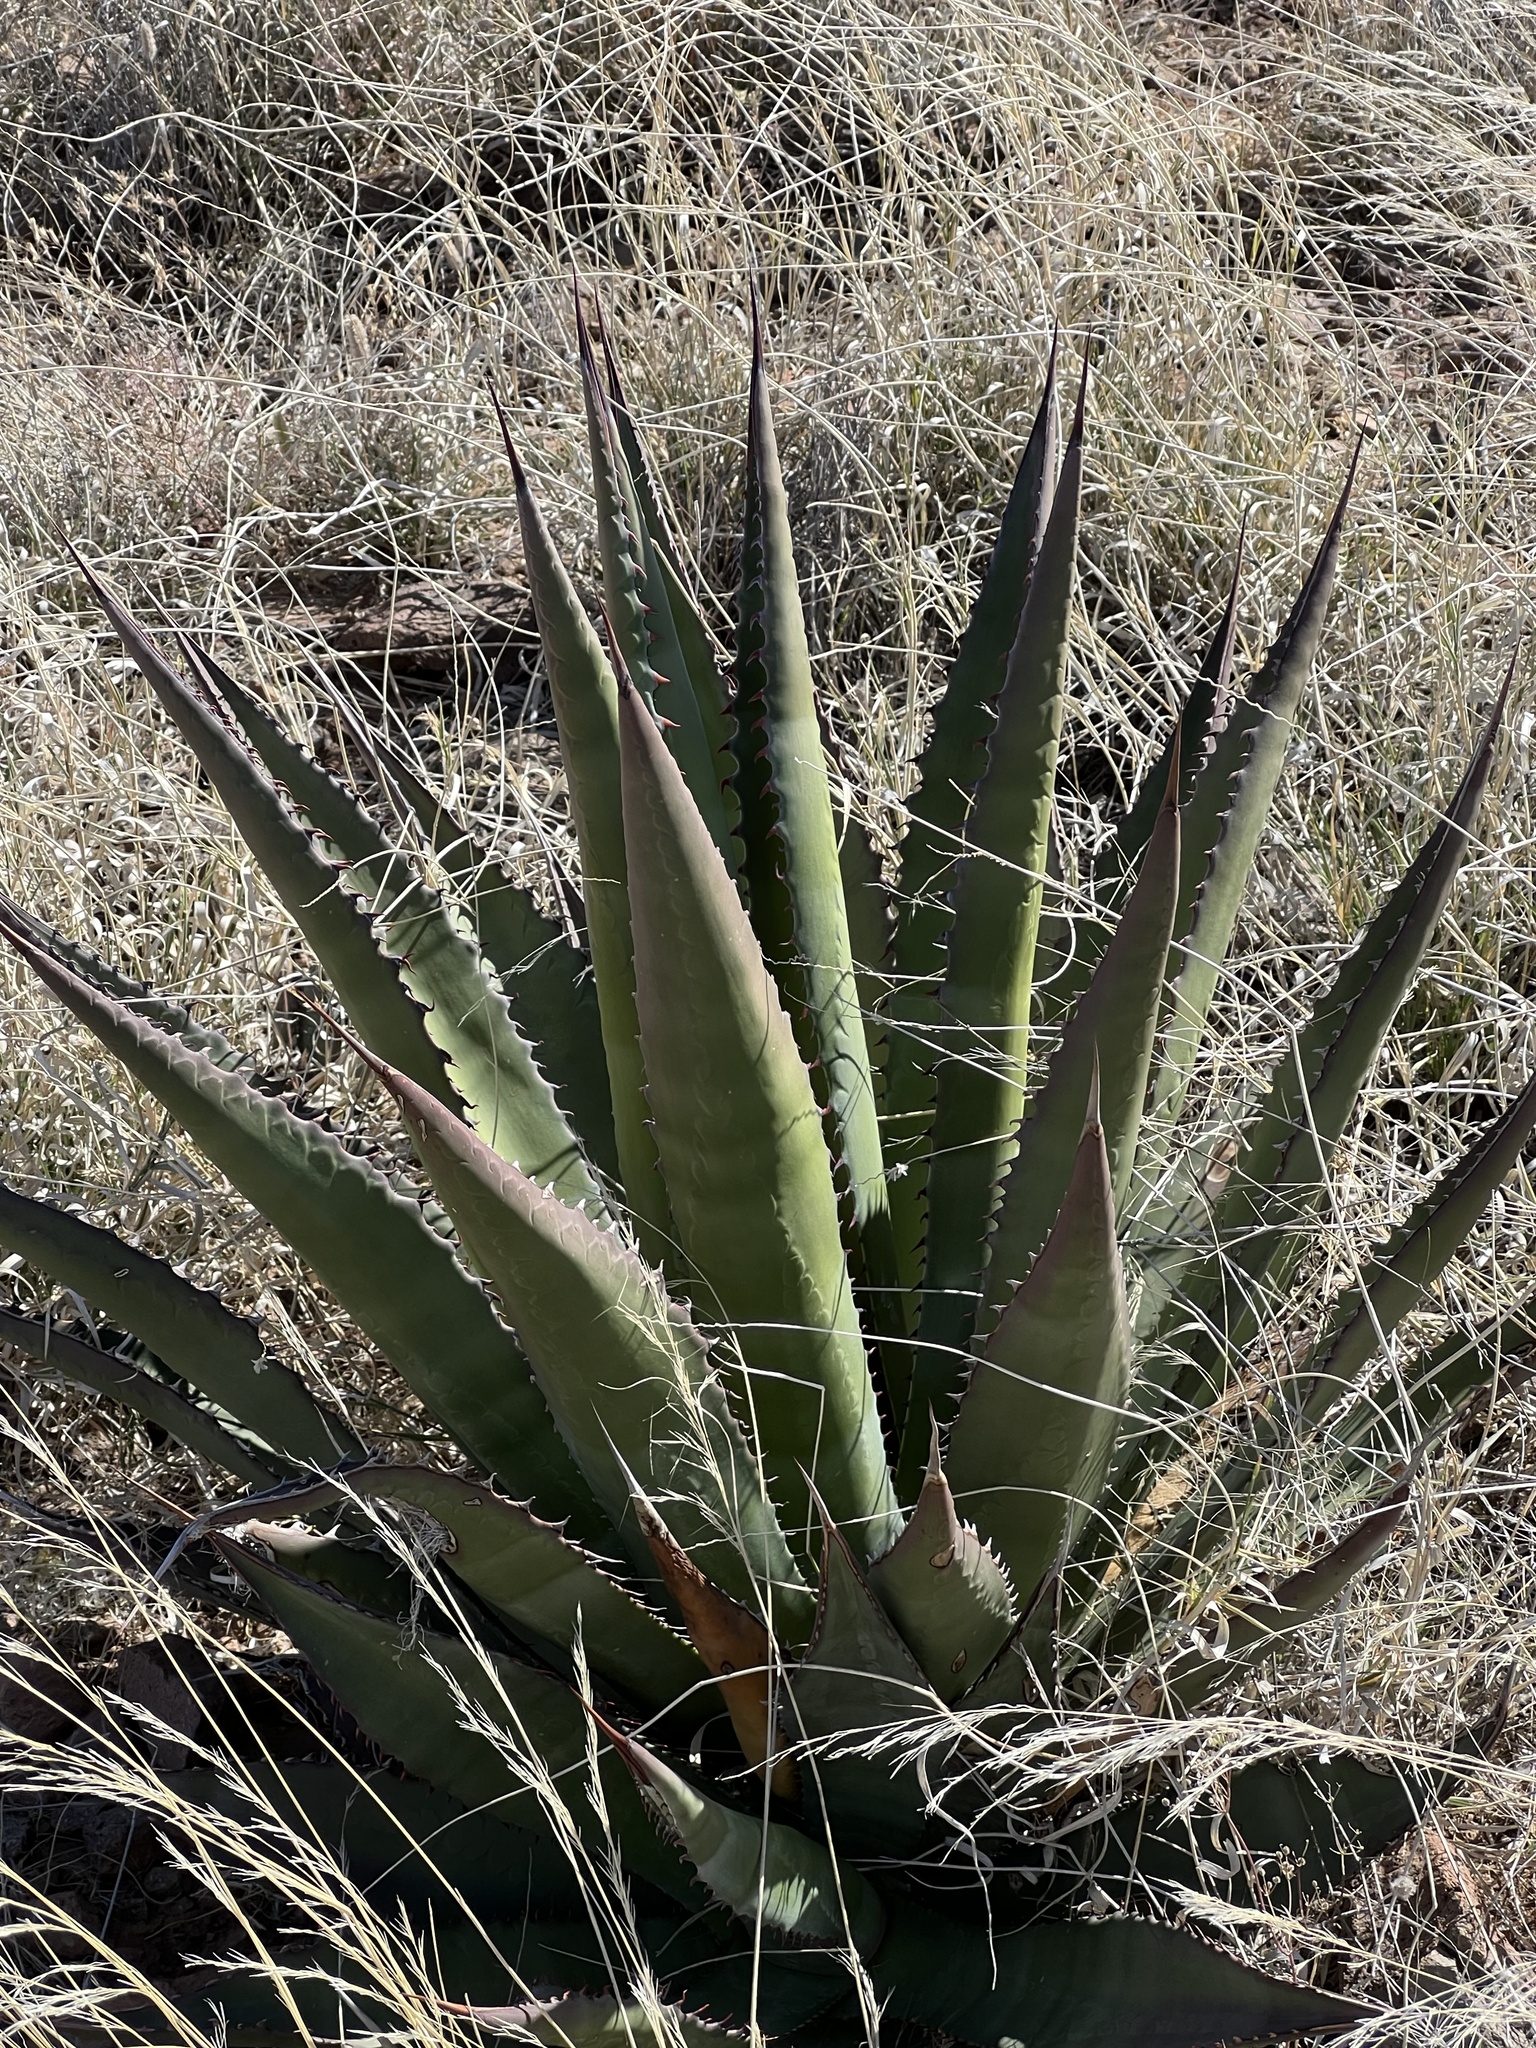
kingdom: Plantae
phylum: Tracheophyta
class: Liliopsida
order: Asparagales
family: Asparagaceae
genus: Agave
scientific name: Agave palmeri
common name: Palmer agave
